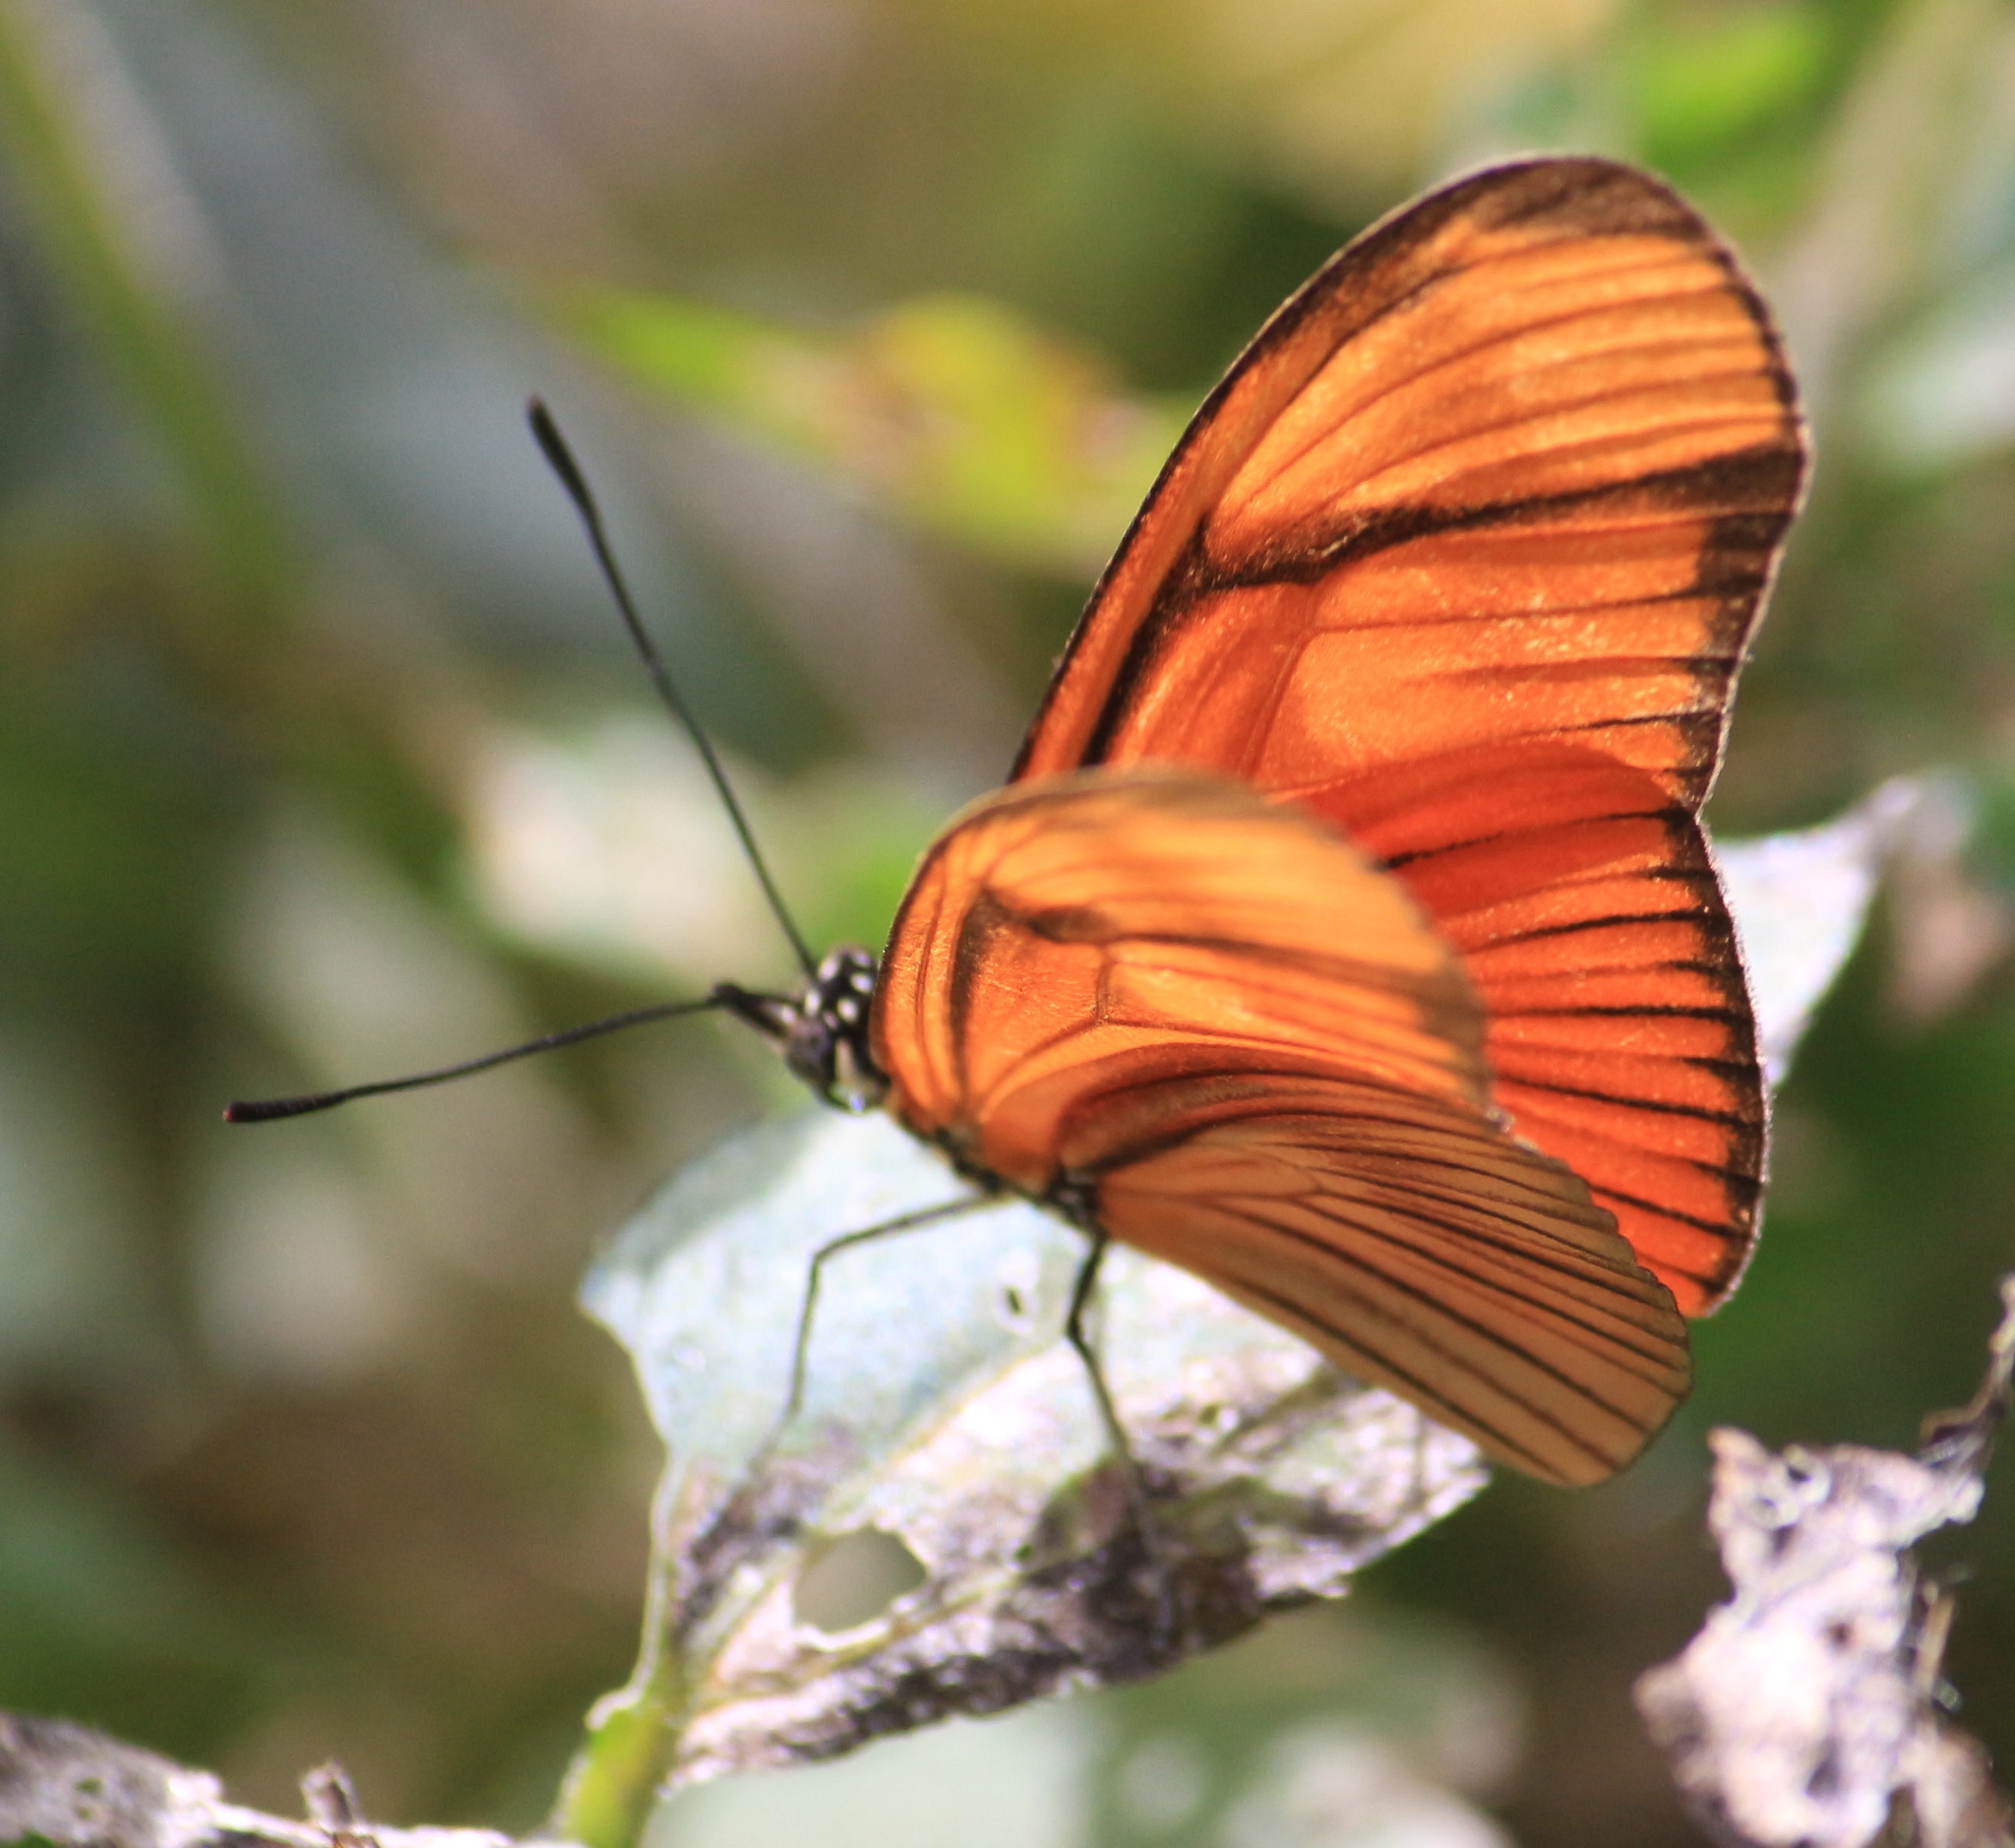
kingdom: Animalia
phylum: Arthropoda
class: Insecta
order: Lepidoptera
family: Nymphalidae
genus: Heliconius
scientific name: Heliconius aliphera
